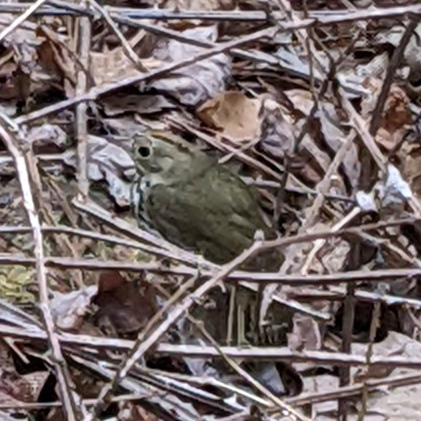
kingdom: Animalia
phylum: Chordata
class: Aves
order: Passeriformes
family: Parulidae
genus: Seiurus
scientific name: Seiurus aurocapilla
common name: Ovenbird
